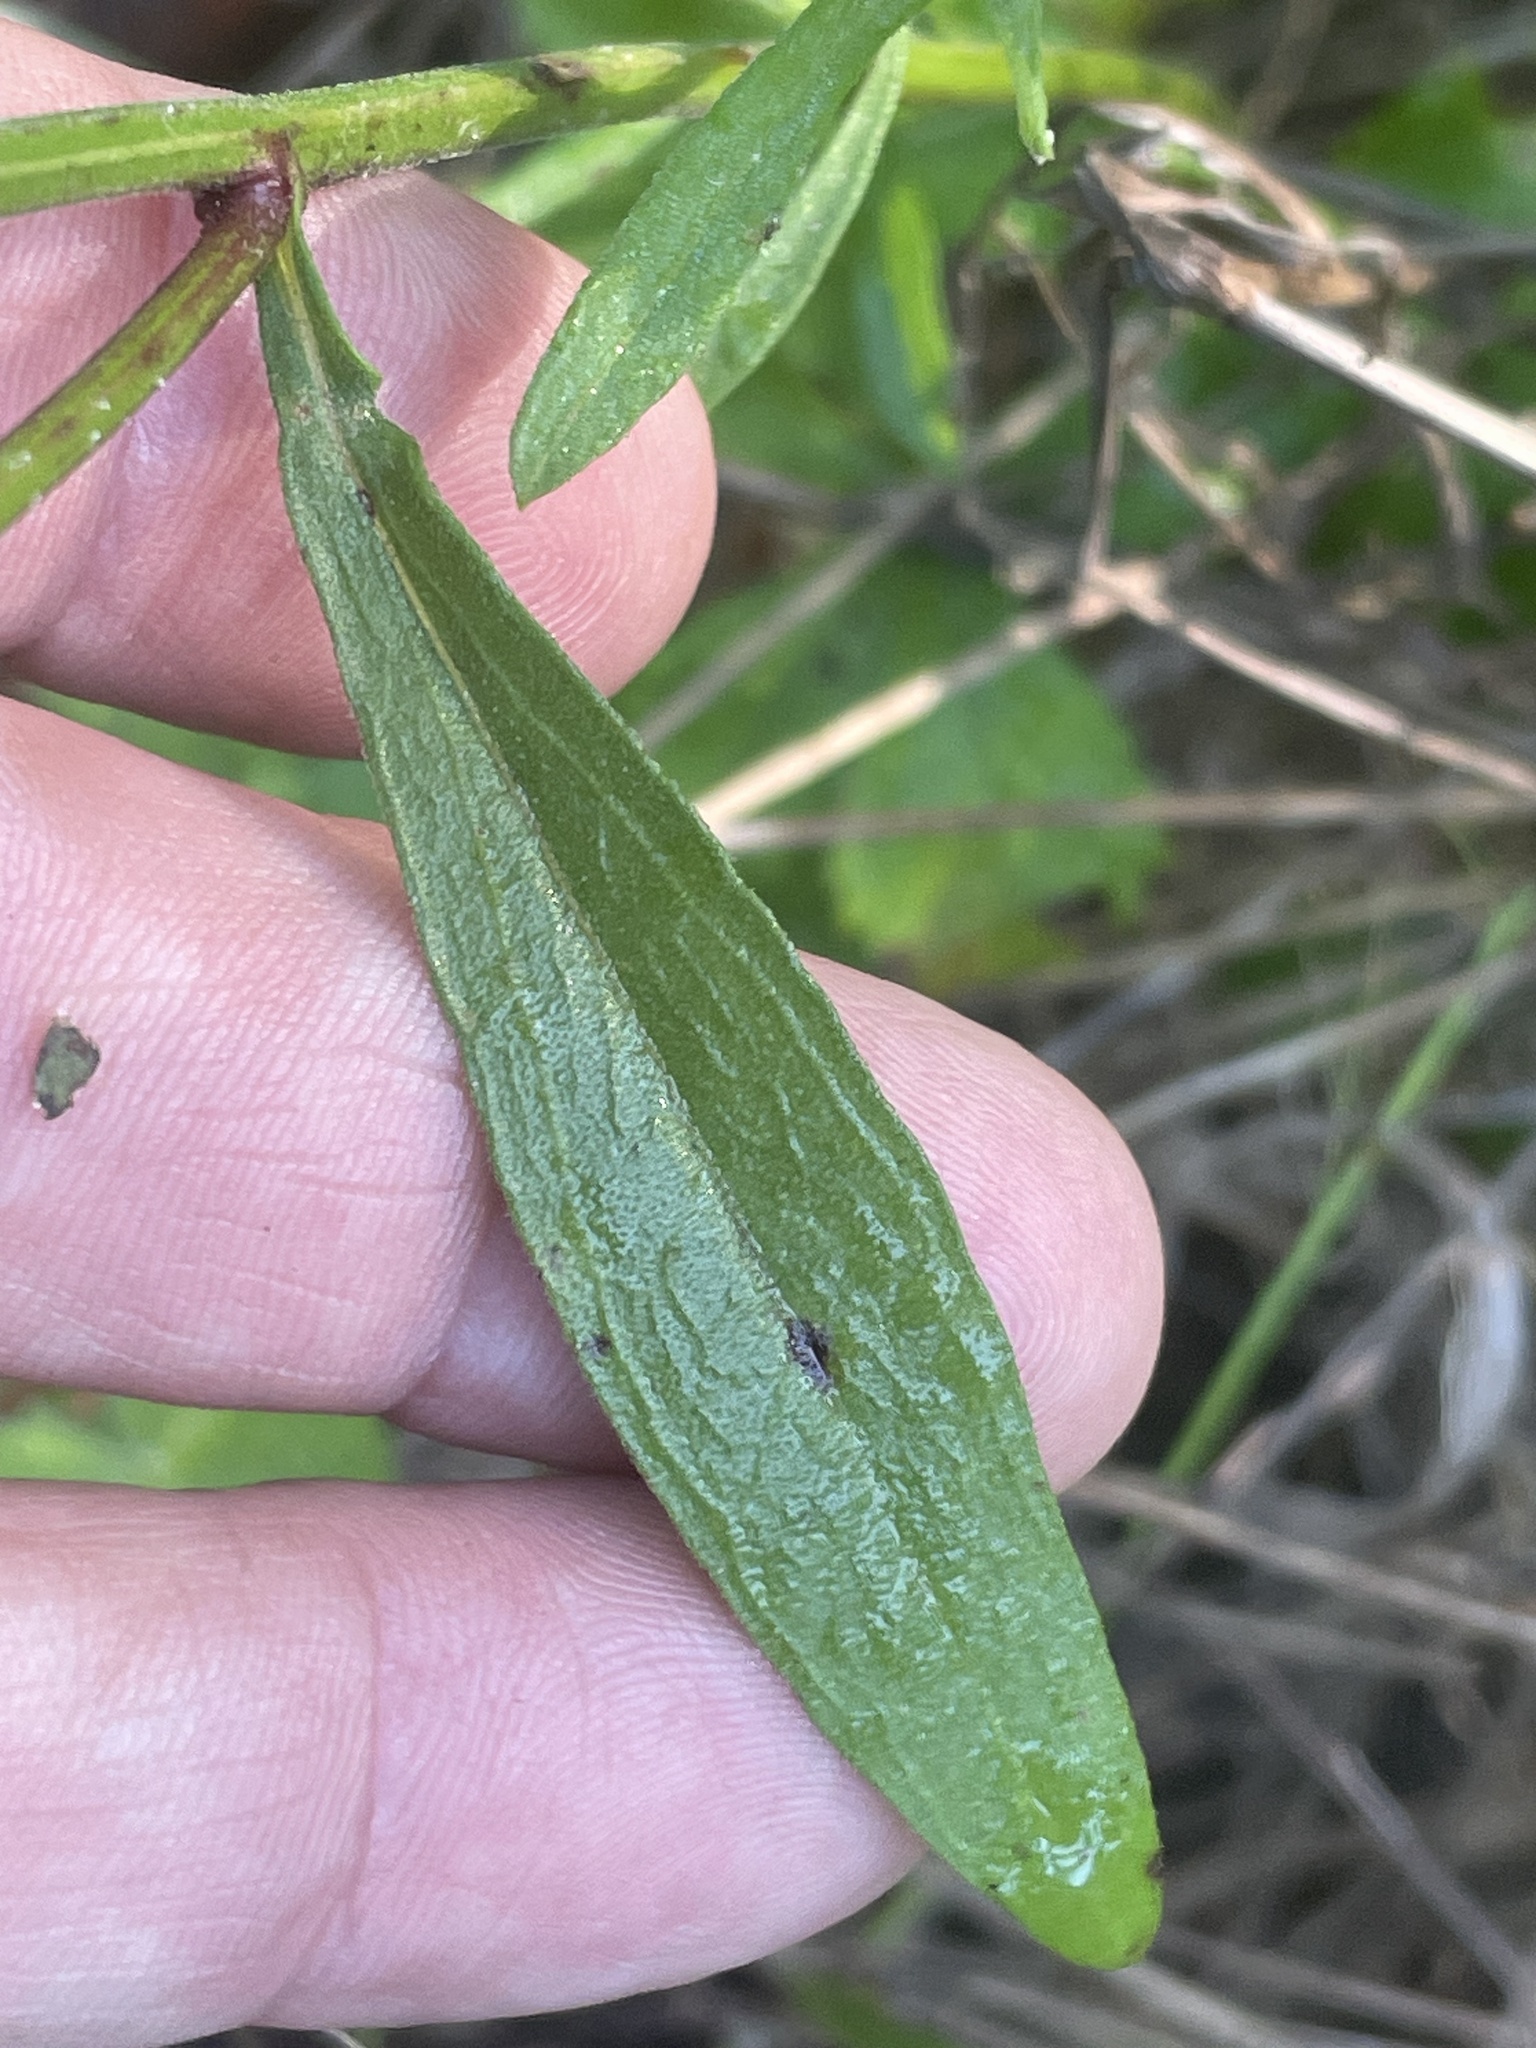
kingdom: Plantae
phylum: Tracheophyta
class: Magnoliopsida
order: Asterales
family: Asteraceae
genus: Erigeron
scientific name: Erigeron strigosus
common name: Common eastern fleabane
